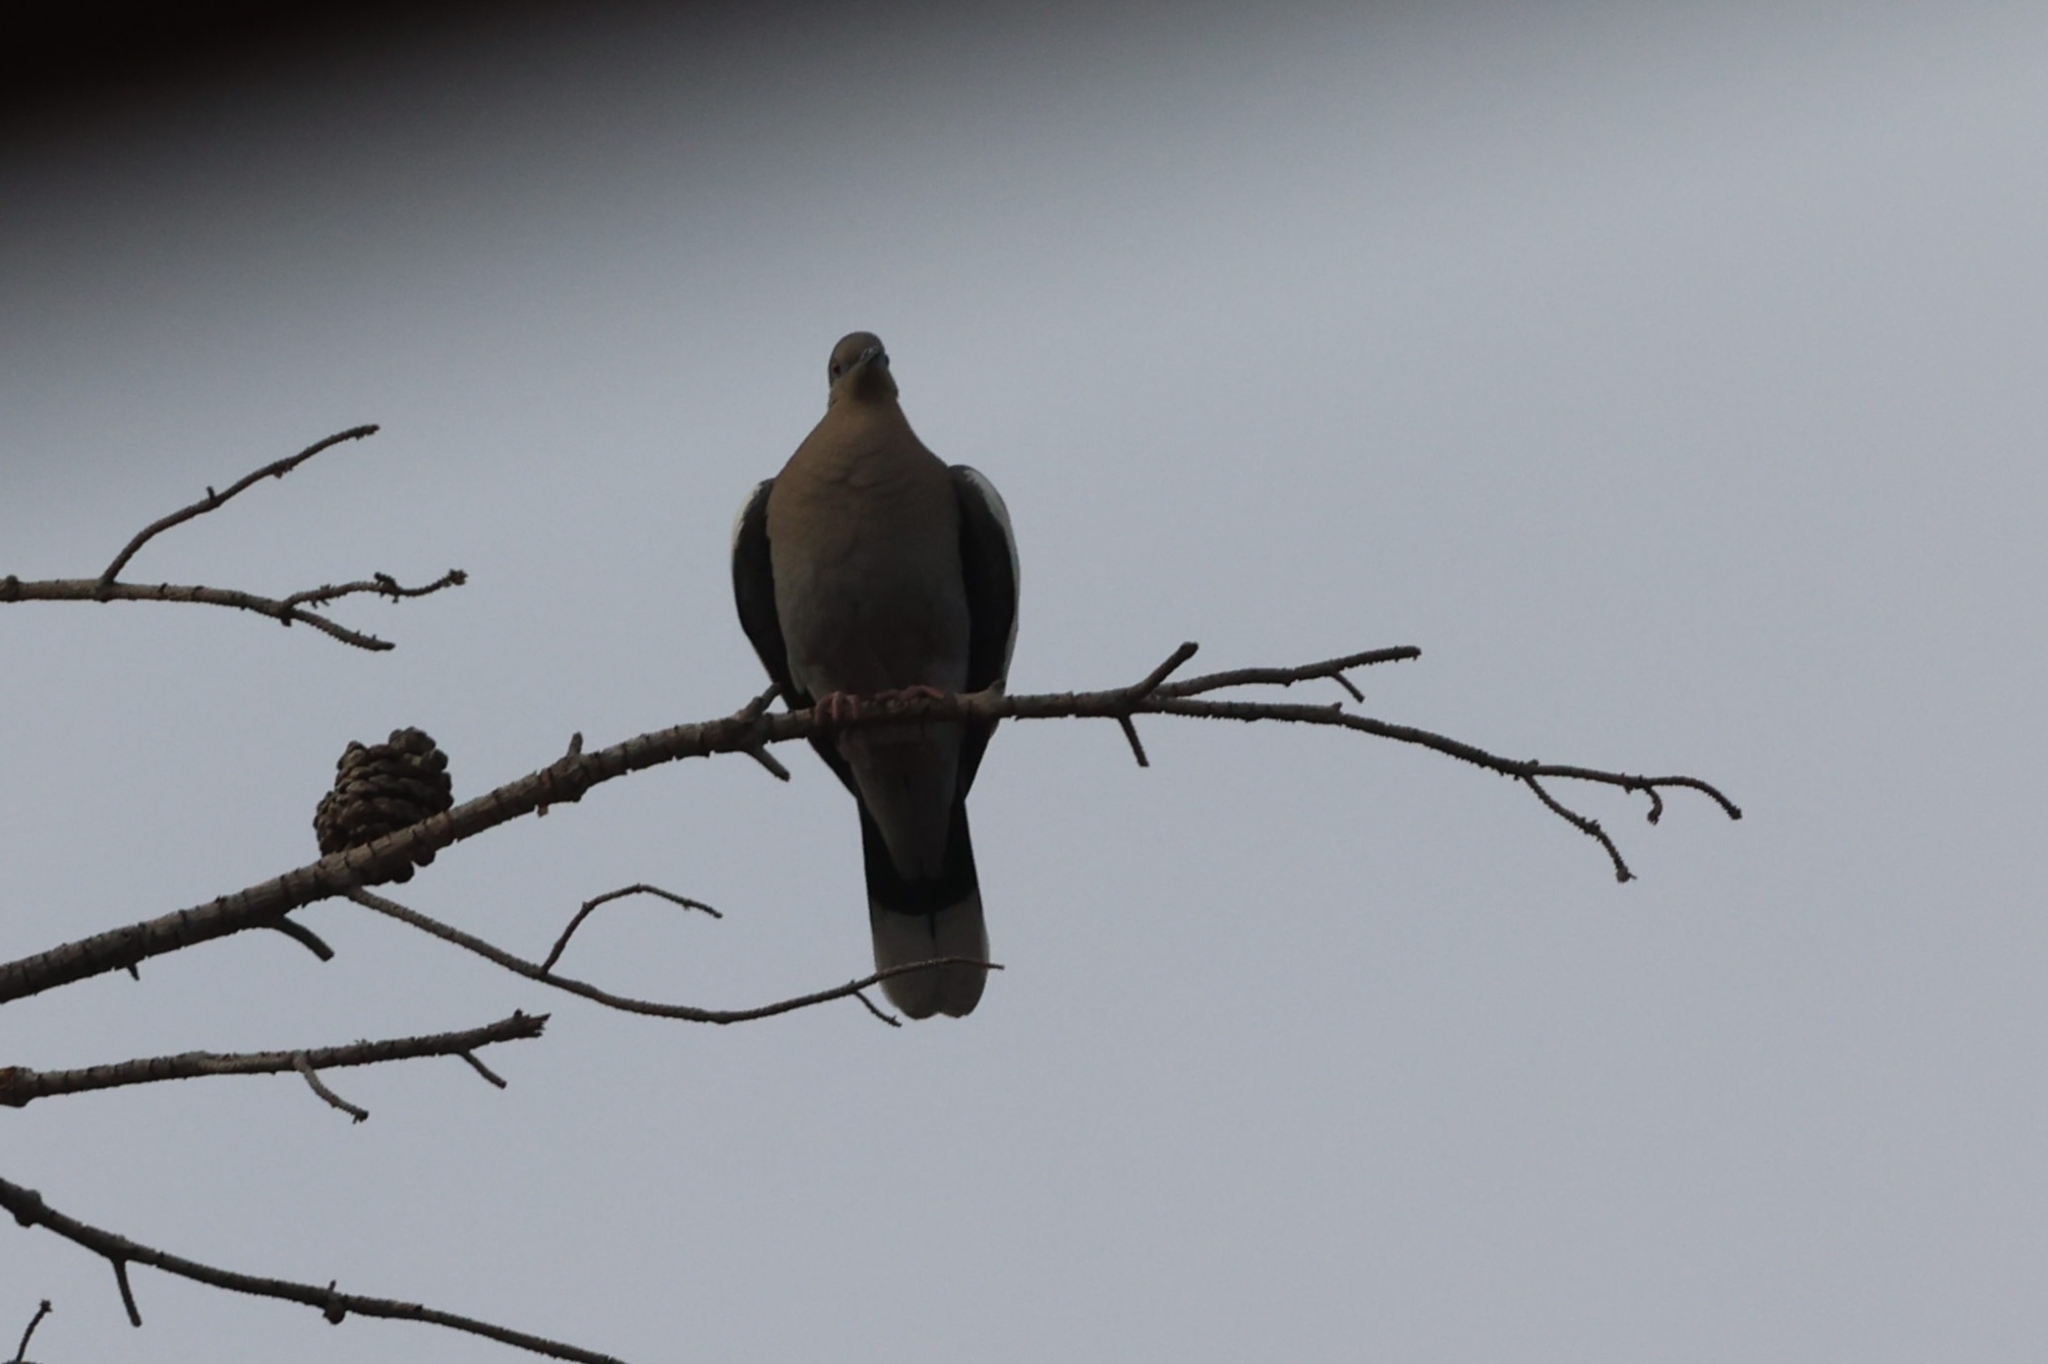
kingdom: Animalia
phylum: Chordata
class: Aves
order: Columbiformes
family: Columbidae
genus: Zenaida
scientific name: Zenaida asiatica
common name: White-winged dove
